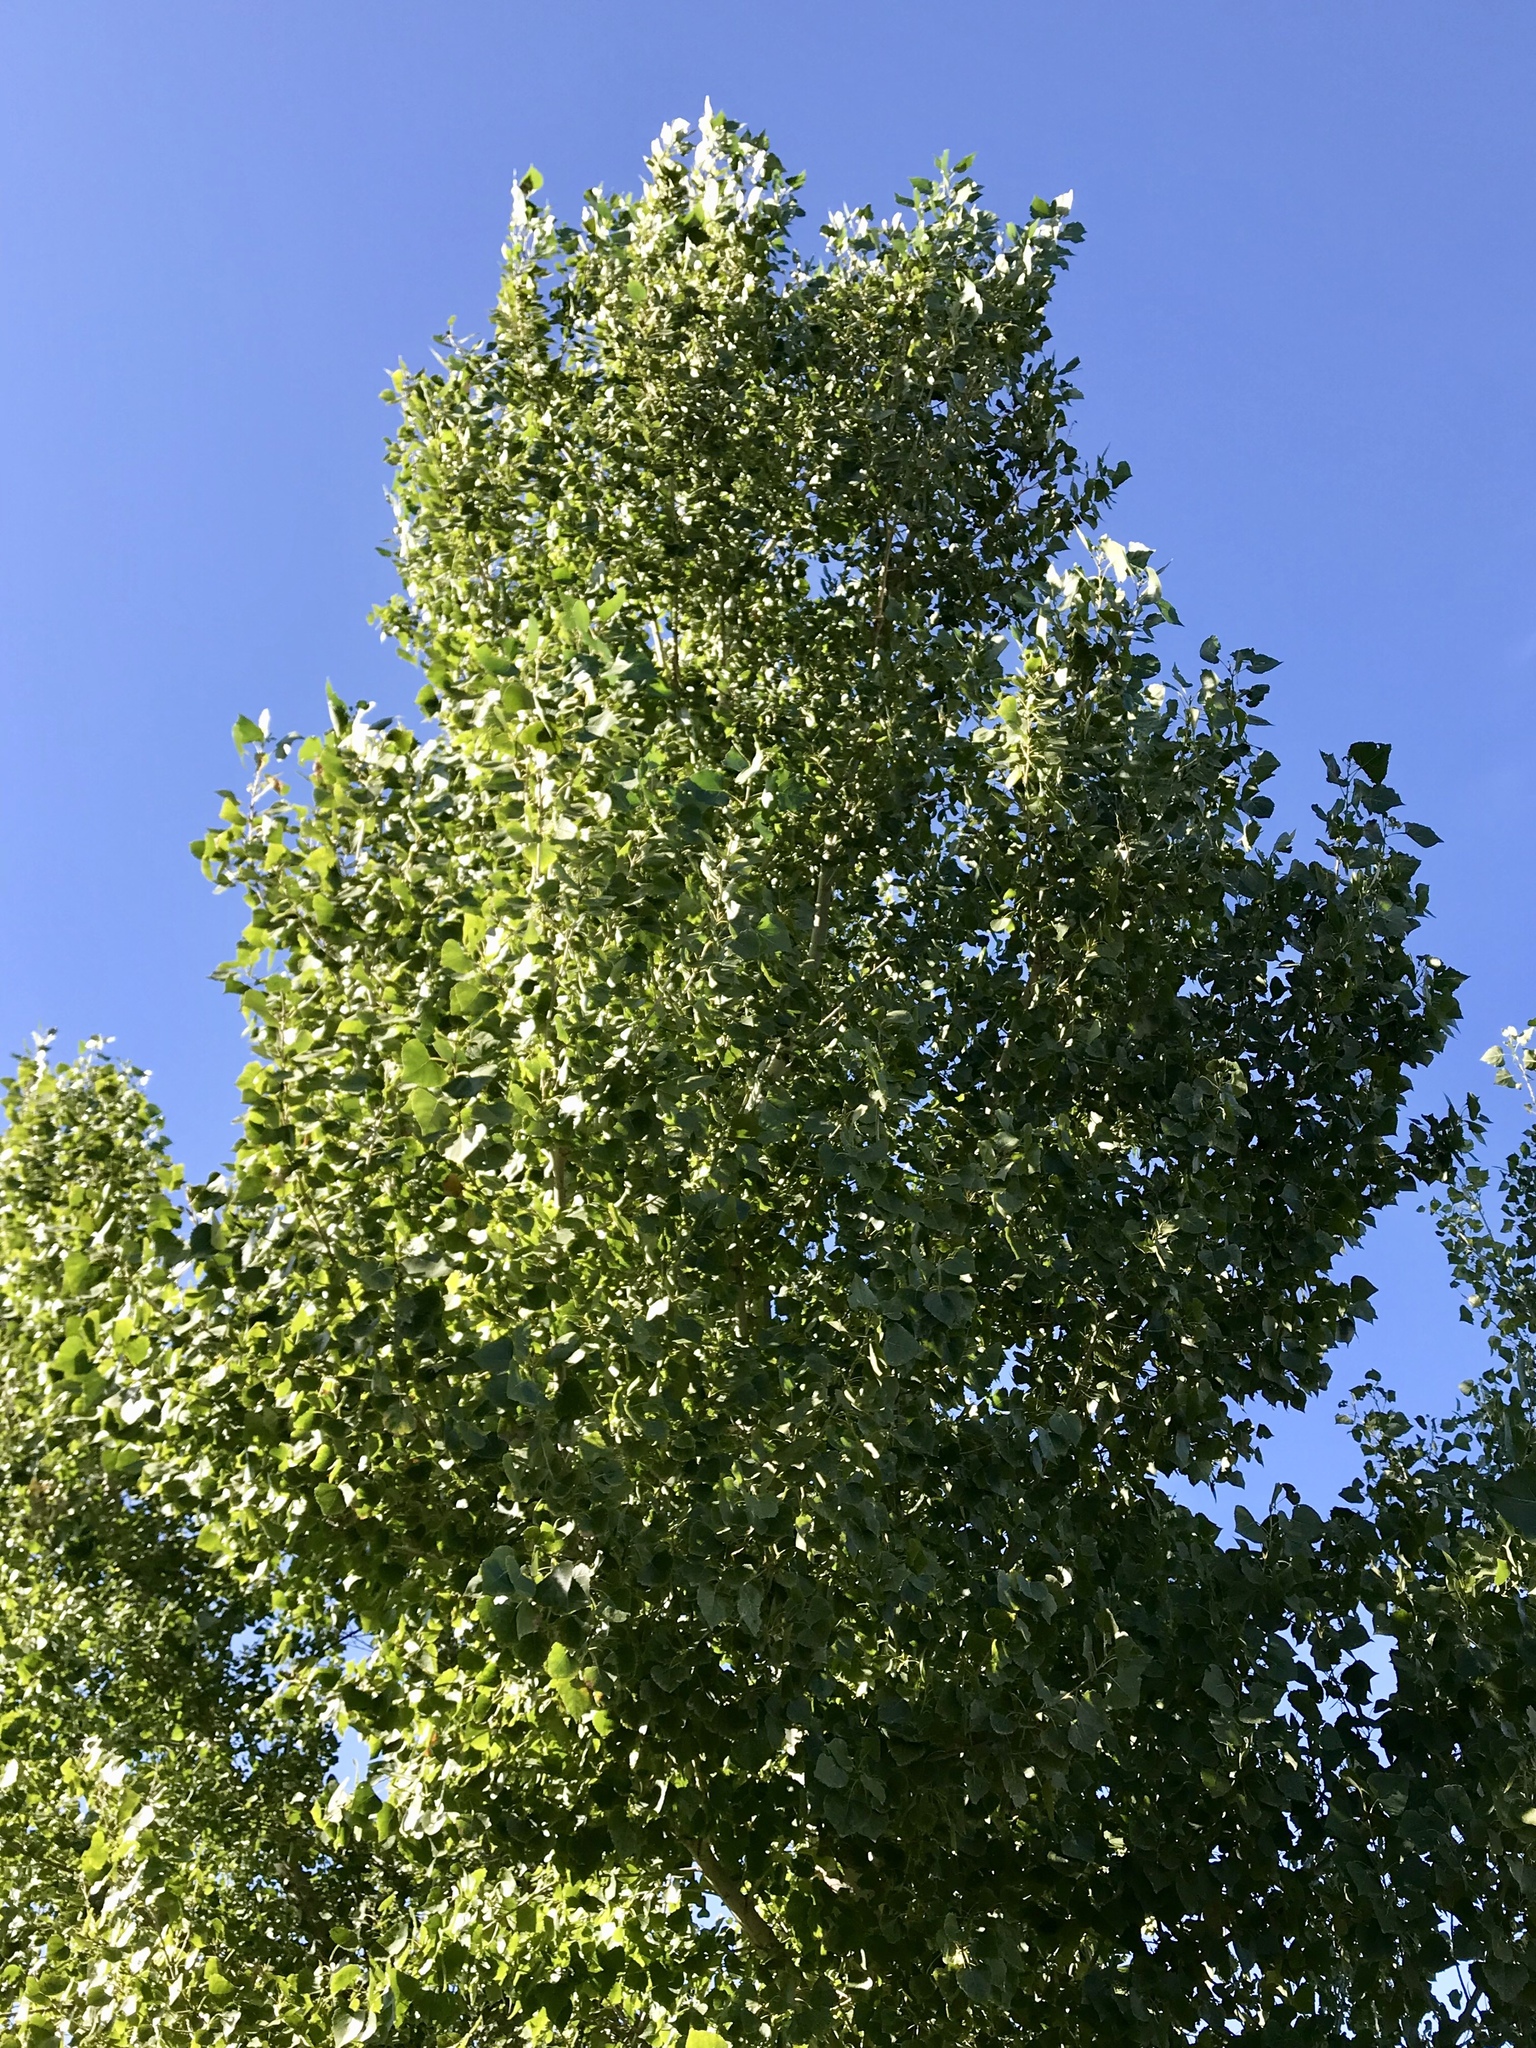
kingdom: Plantae
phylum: Tracheophyta
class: Magnoliopsida
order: Malpighiales
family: Salicaceae
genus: Populus
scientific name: Populus fremontii
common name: Fremont's cottonwood
